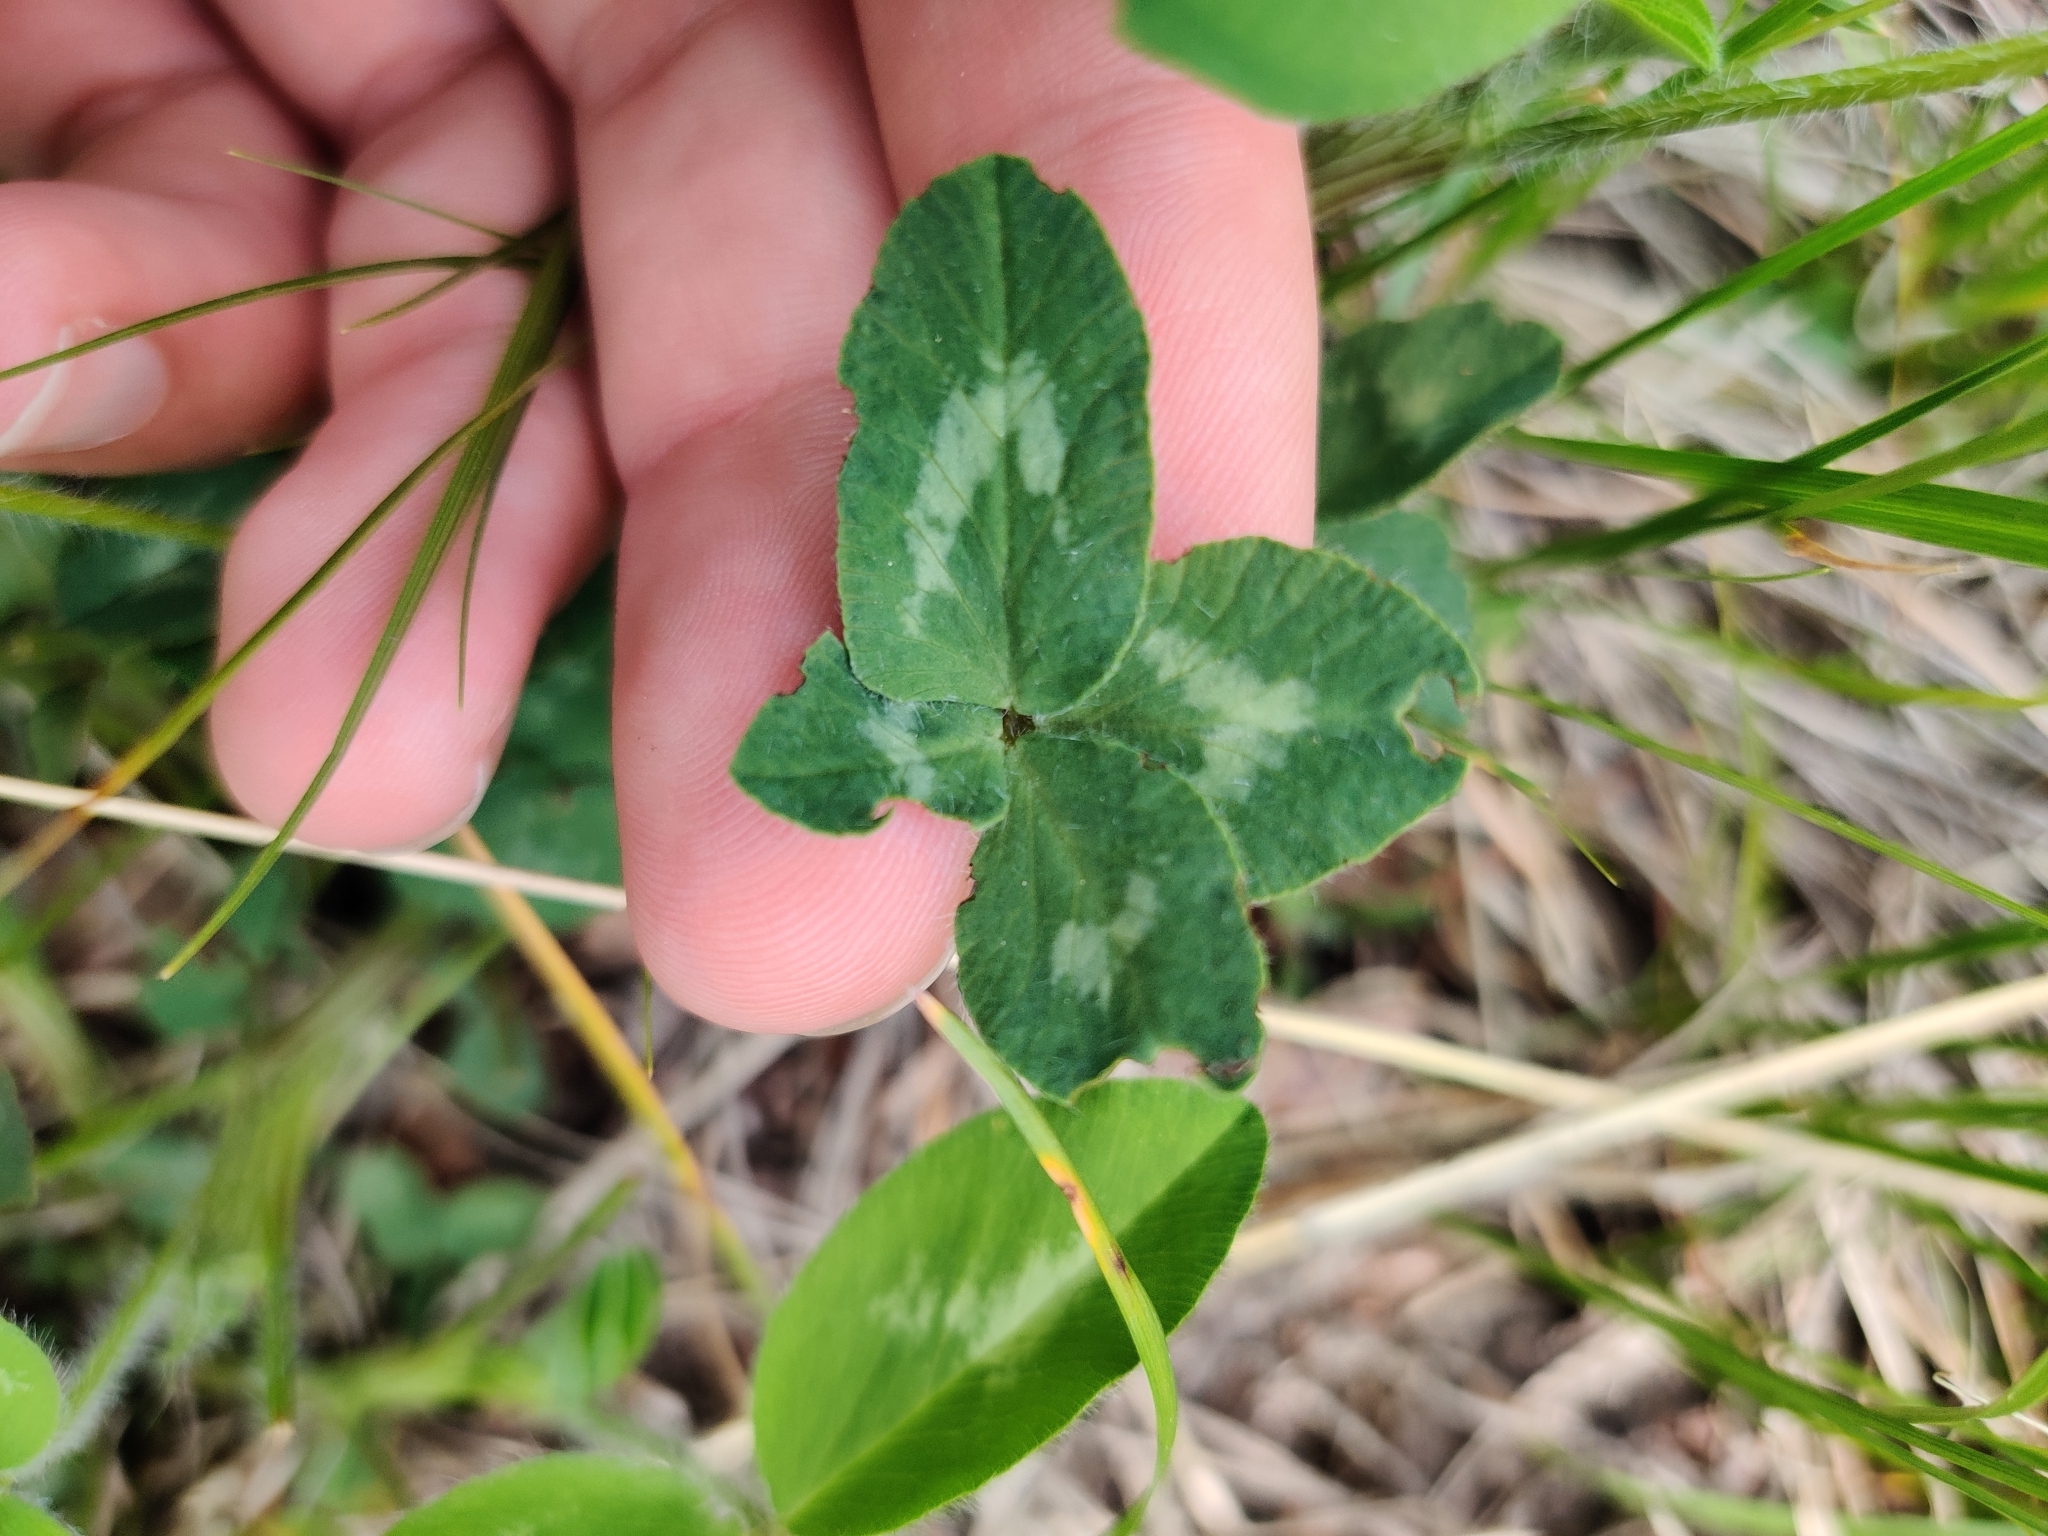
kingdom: Plantae
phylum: Tracheophyta
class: Magnoliopsida
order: Fabales
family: Fabaceae
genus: Trifolium
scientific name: Trifolium pratense
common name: Red clover
